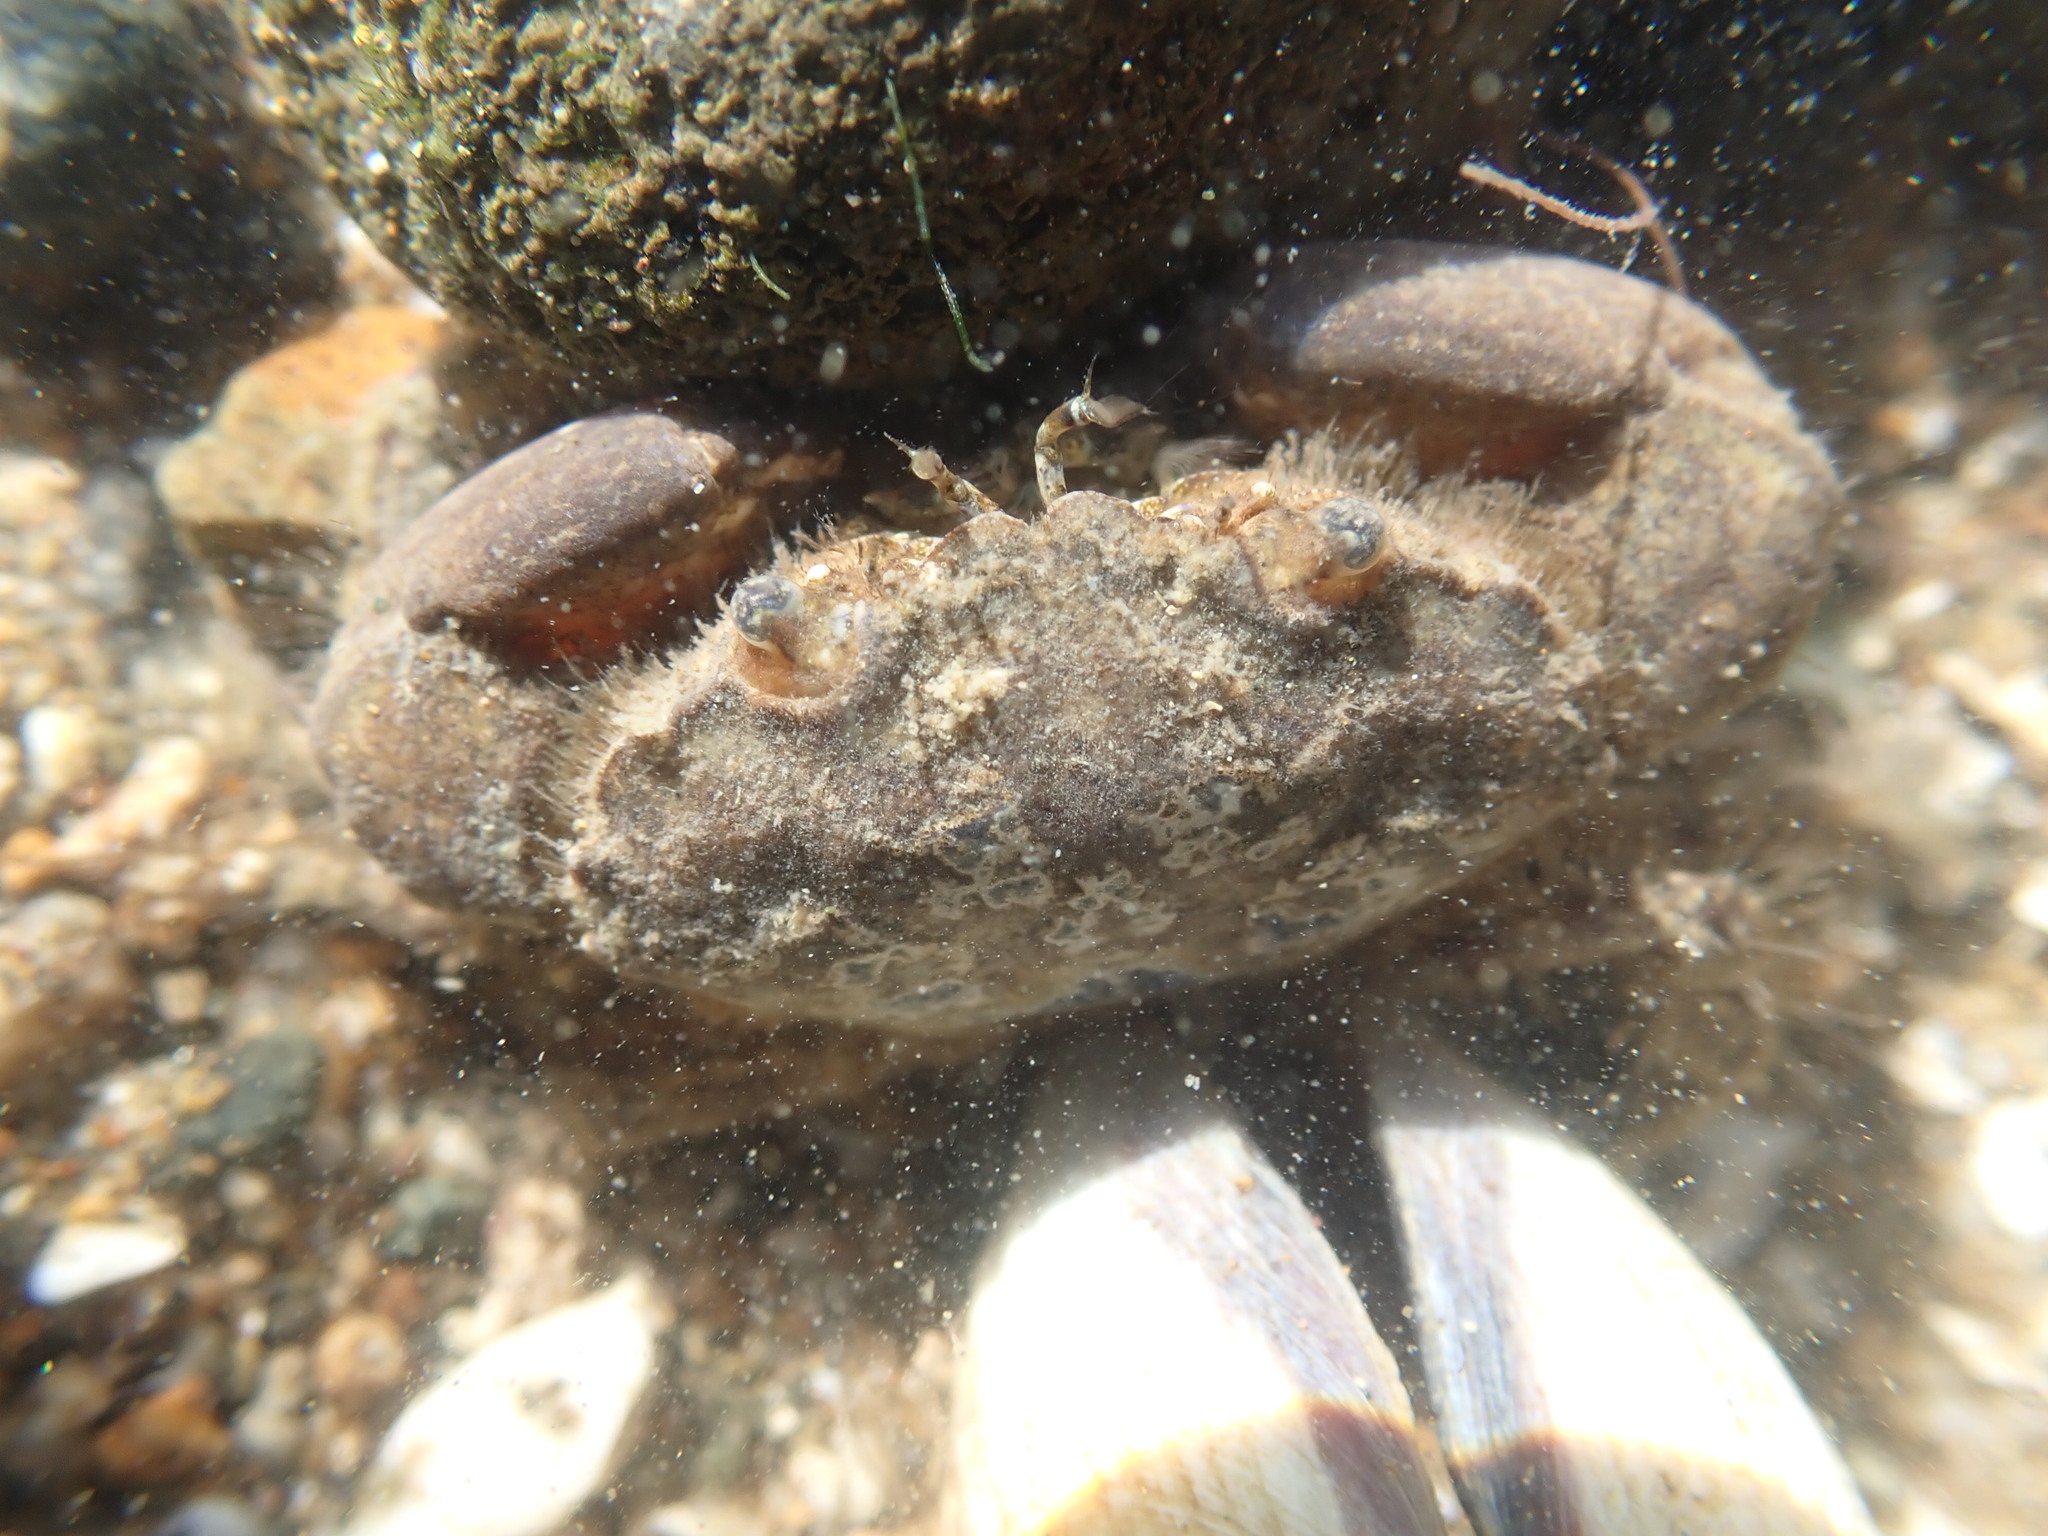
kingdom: Animalia
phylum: Arthropoda
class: Malacostraca
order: Decapoda
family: Pilumnidae
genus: Pilumnopeus
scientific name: Pilumnopeus serratifrons
